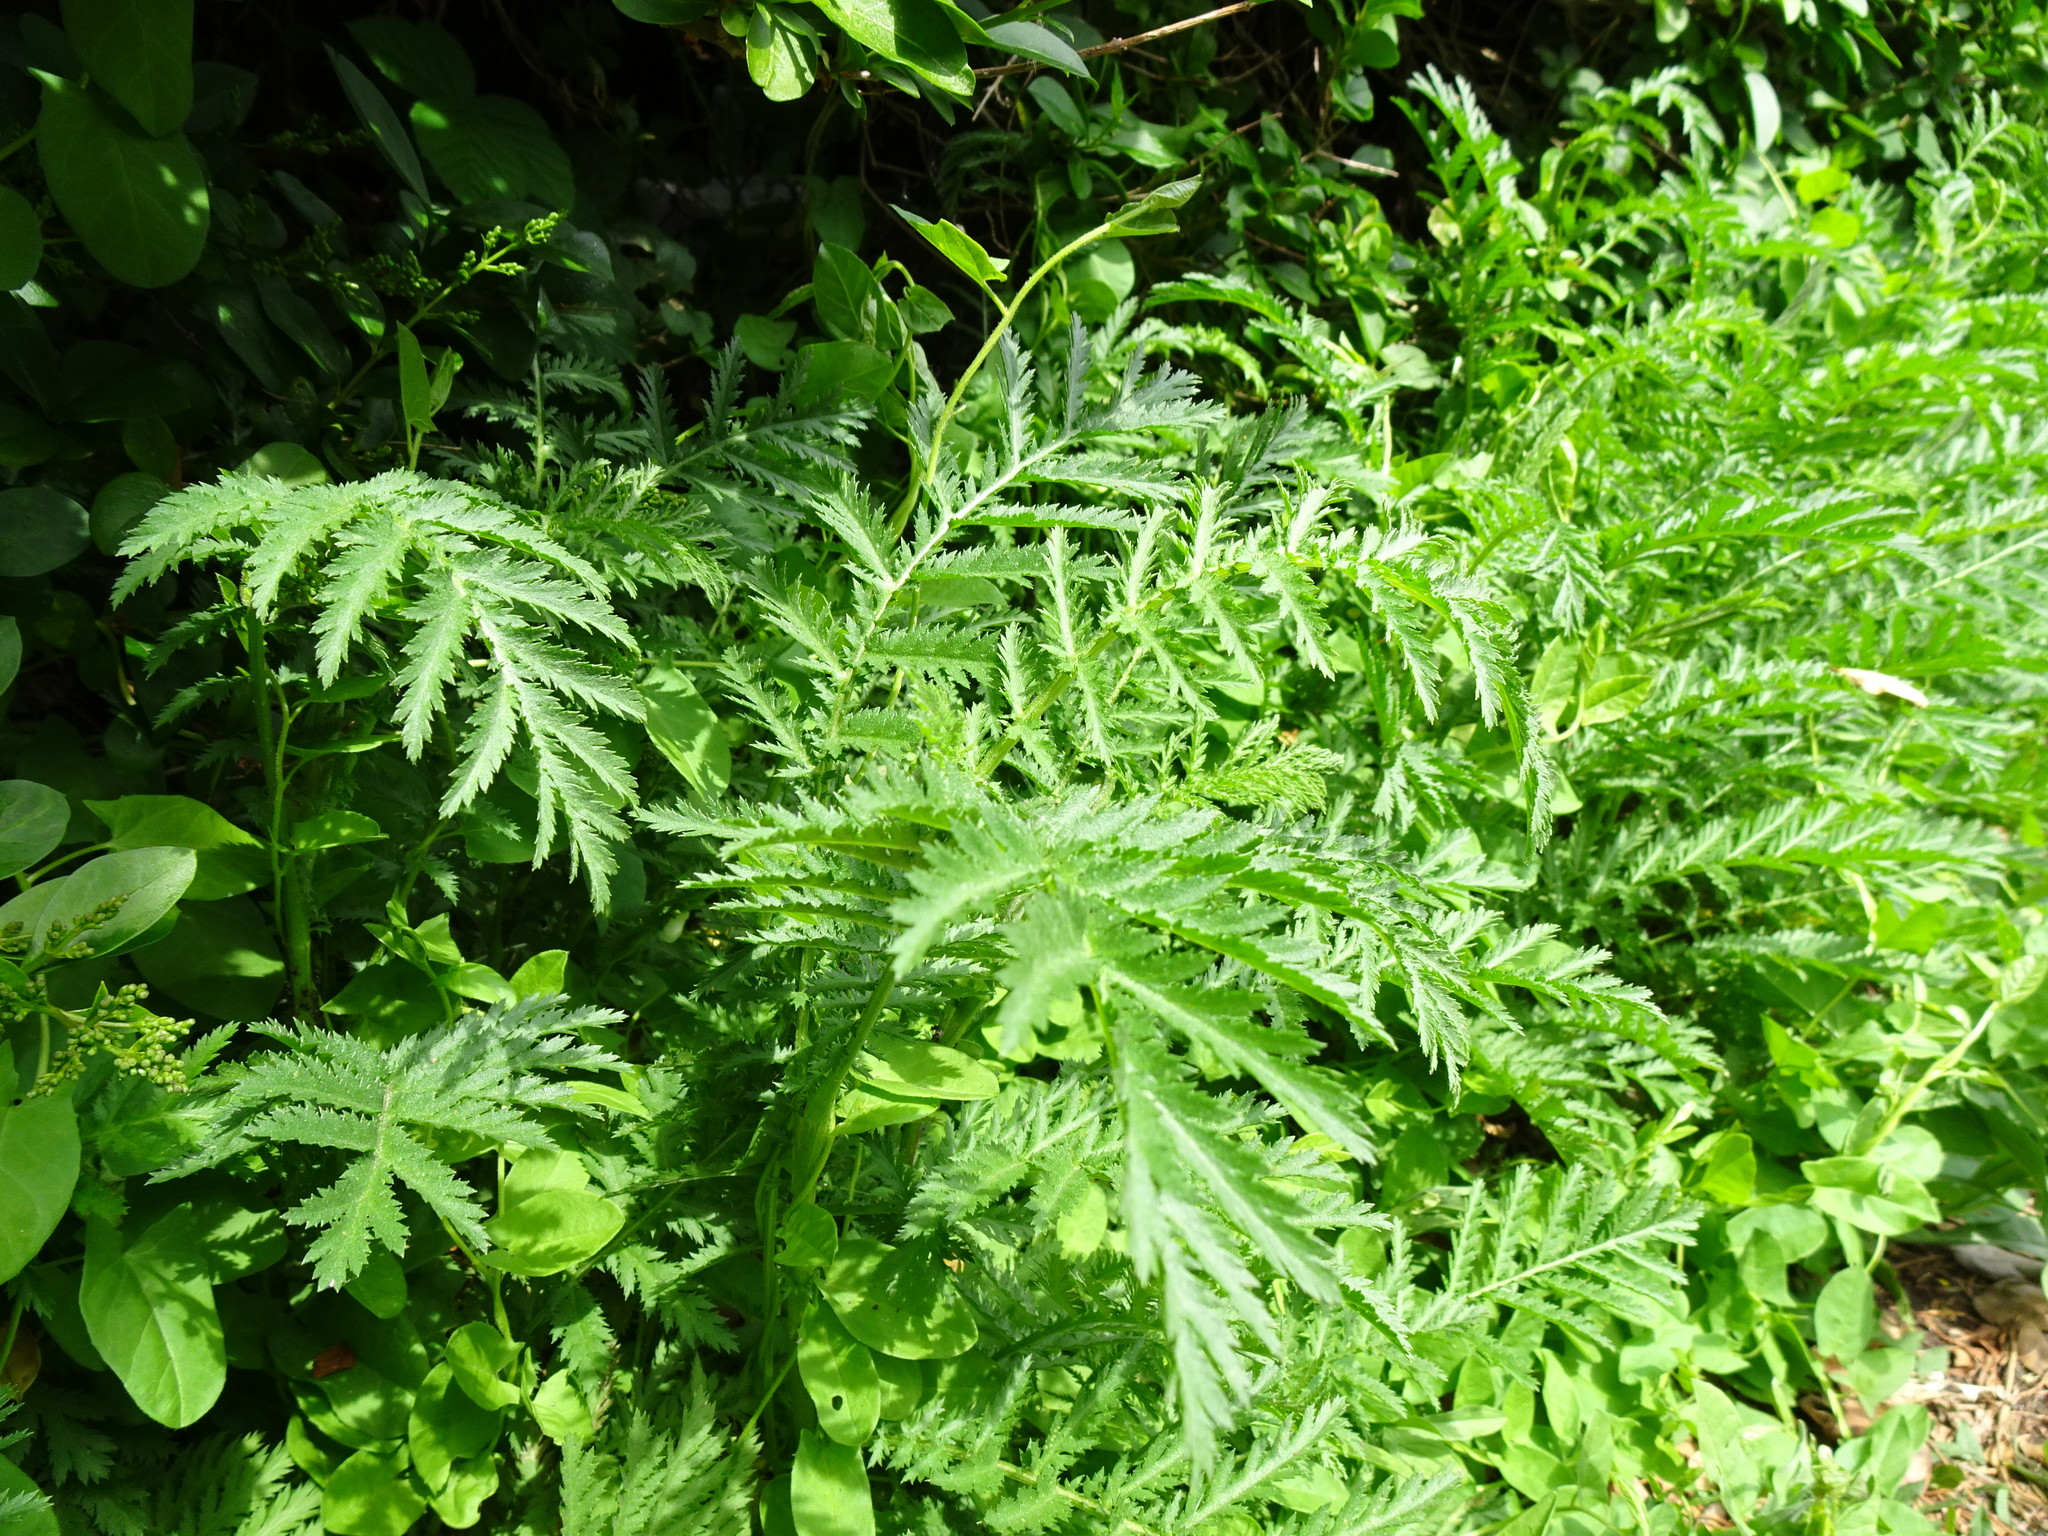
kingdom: Plantae
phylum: Tracheophyta
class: Magnoliopsida
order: Asterales
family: Asteraceae
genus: Tanacetum
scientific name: Tanacetum vulgare
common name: Common tansy
